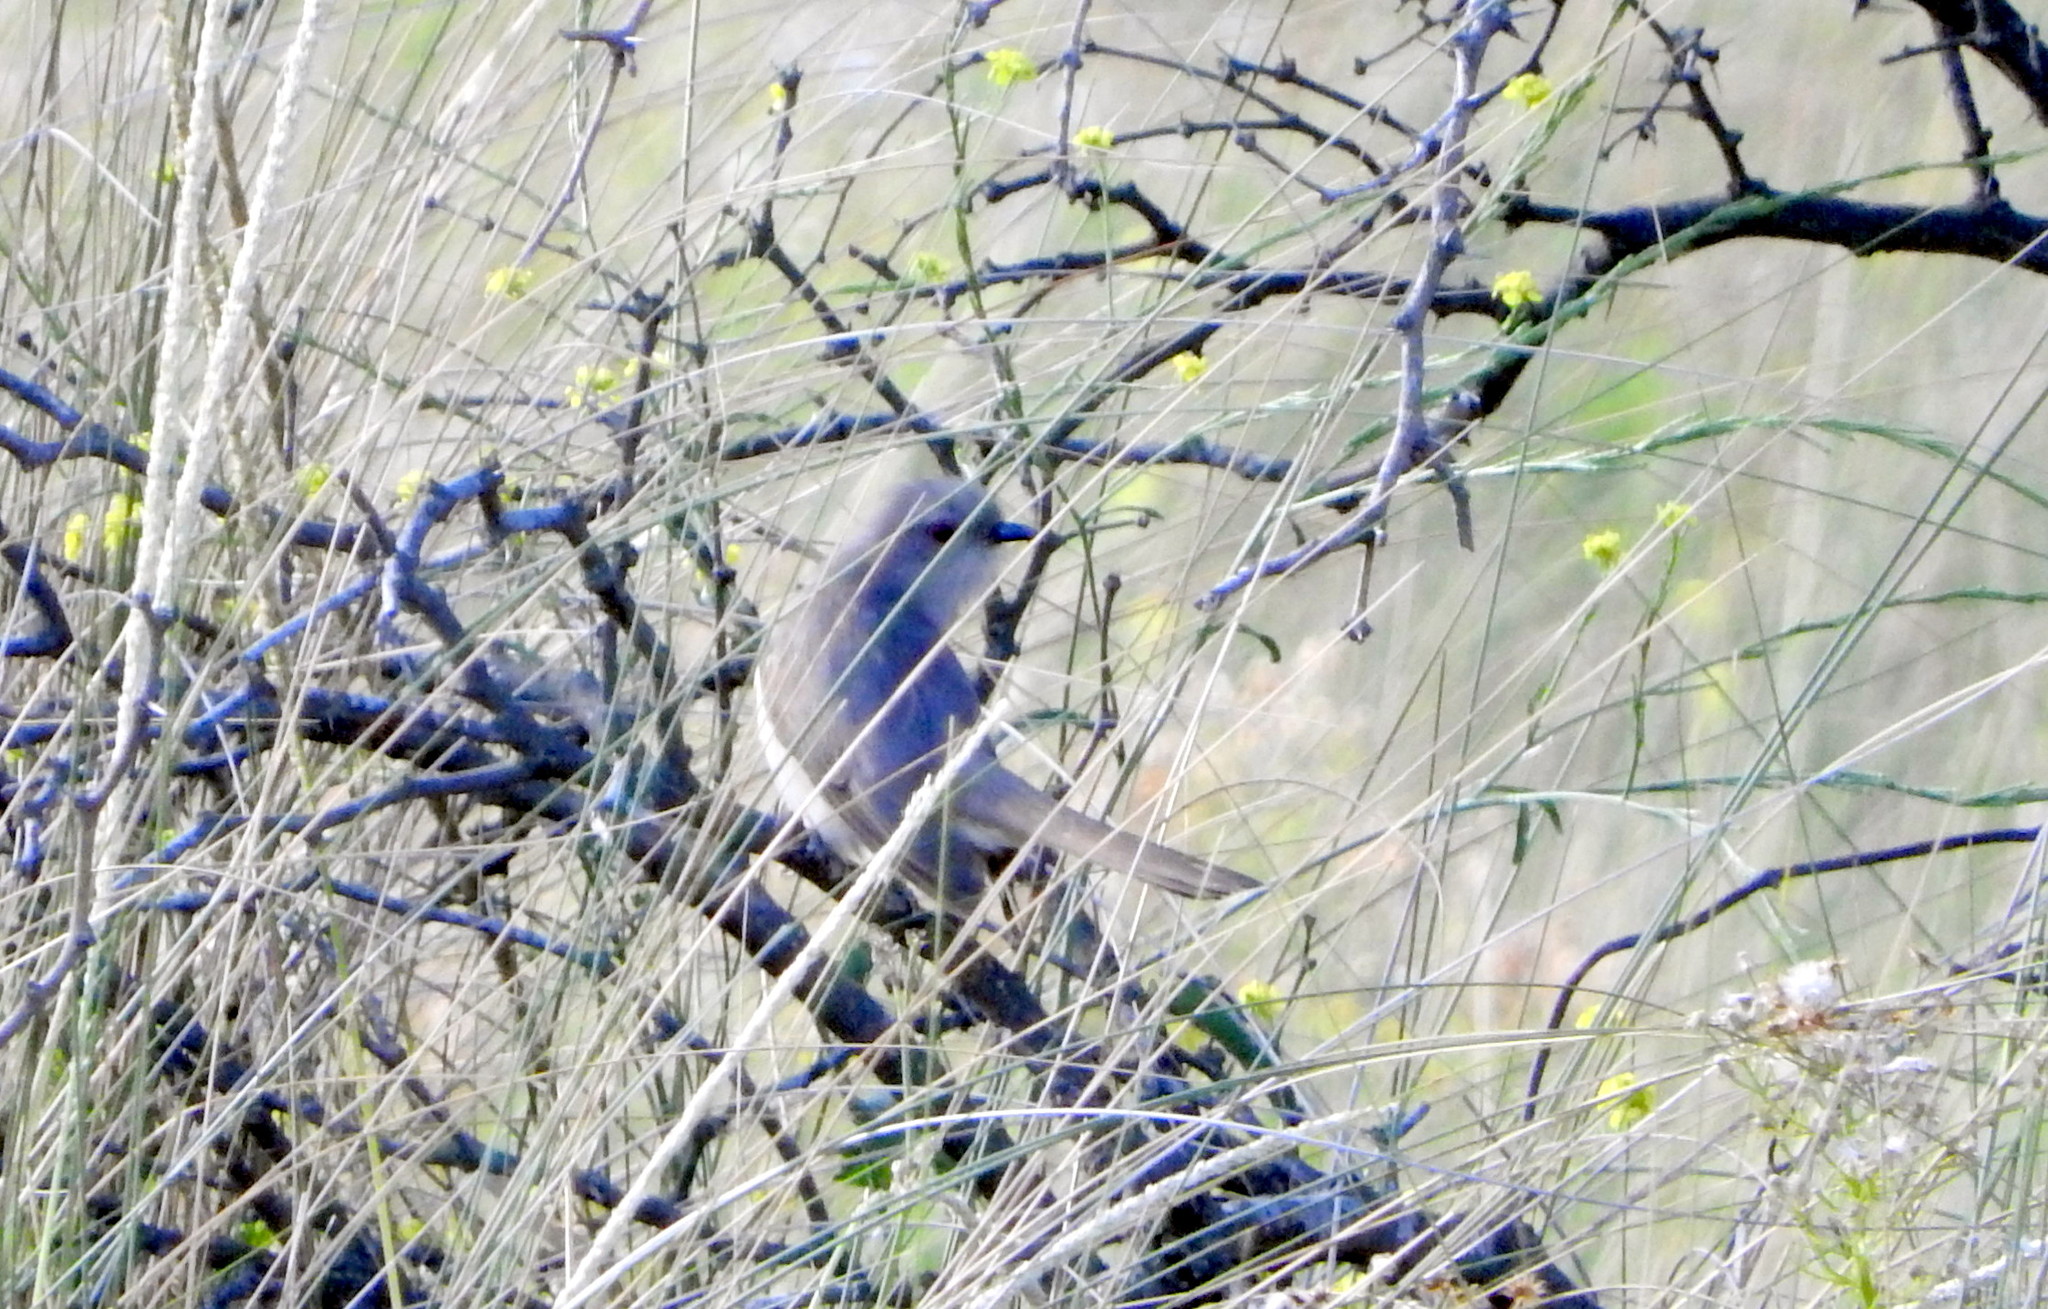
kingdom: Animalia
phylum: Chordata
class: Aves
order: Cuculiformes
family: Cuculidae
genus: Coccyzus
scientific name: Coccyzus cinereus
